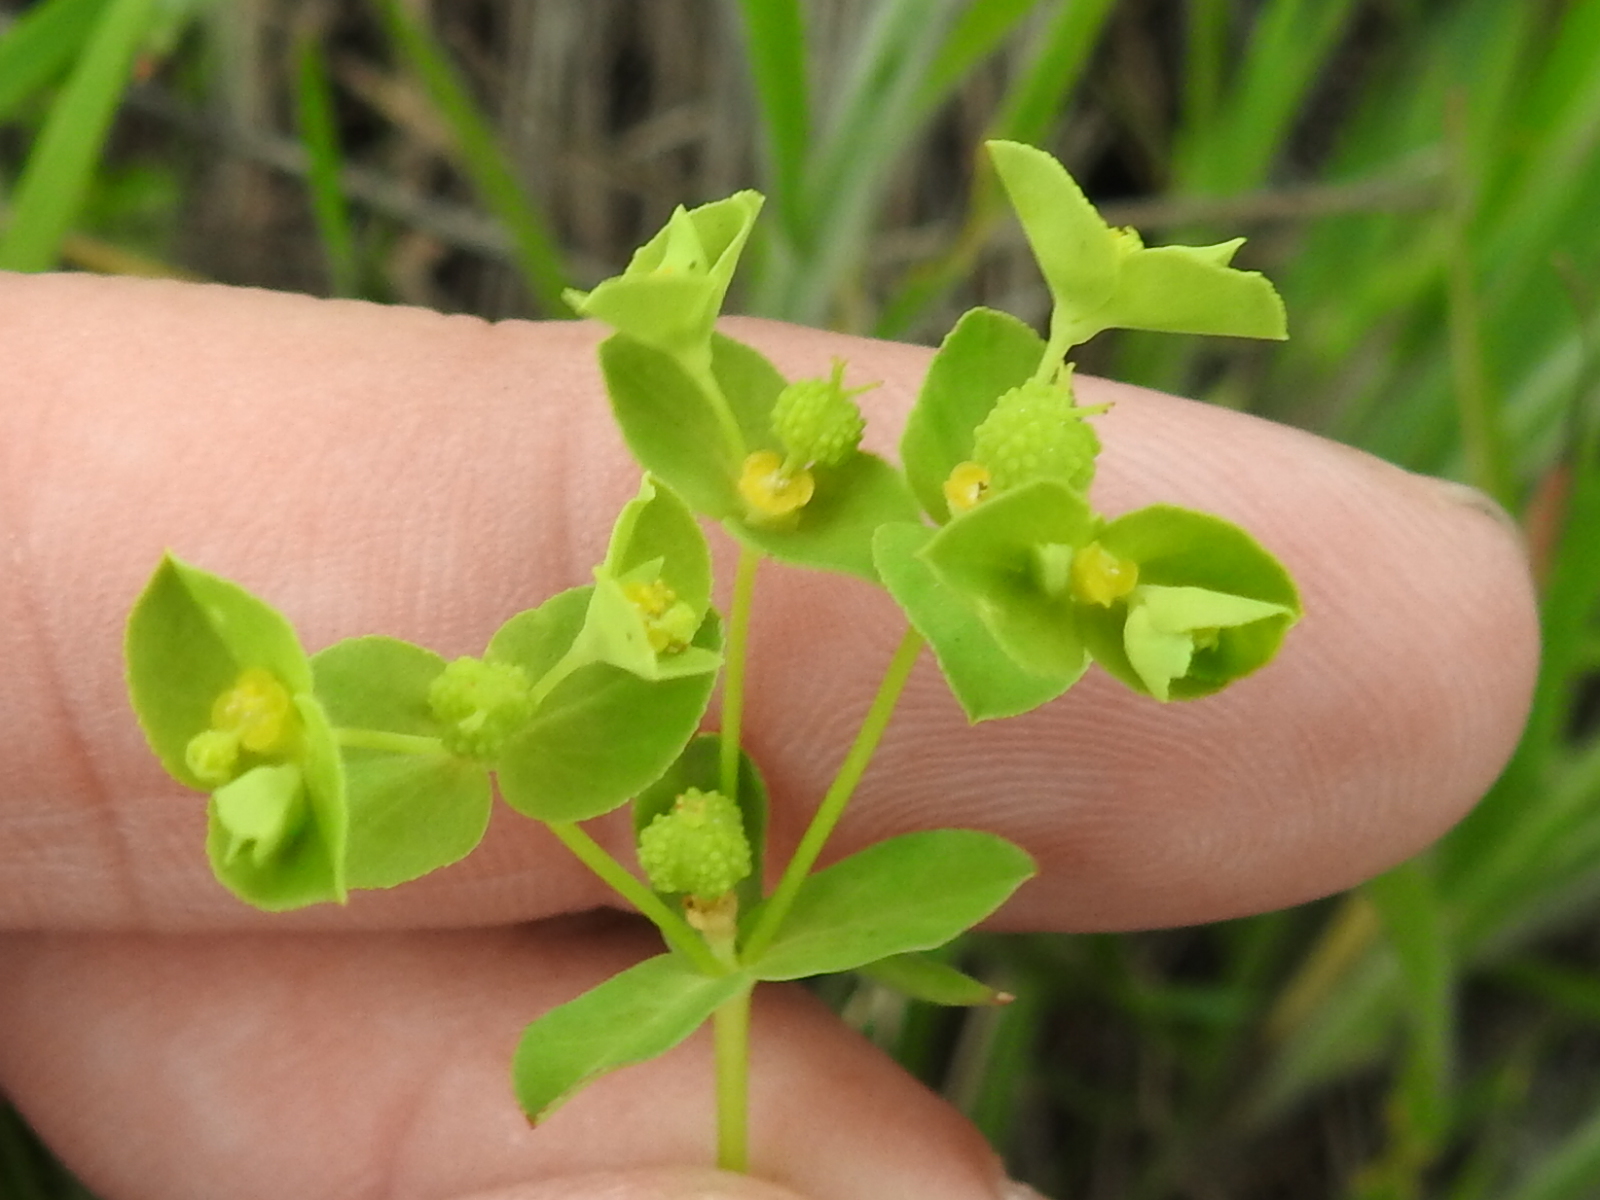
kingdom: Plantae
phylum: Tracheophyta
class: Magnoliopsida
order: Malpighiales
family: Euphorbiaceae
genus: Euphorbia
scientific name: Euphorbia spathulata
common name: Blunt spurge
